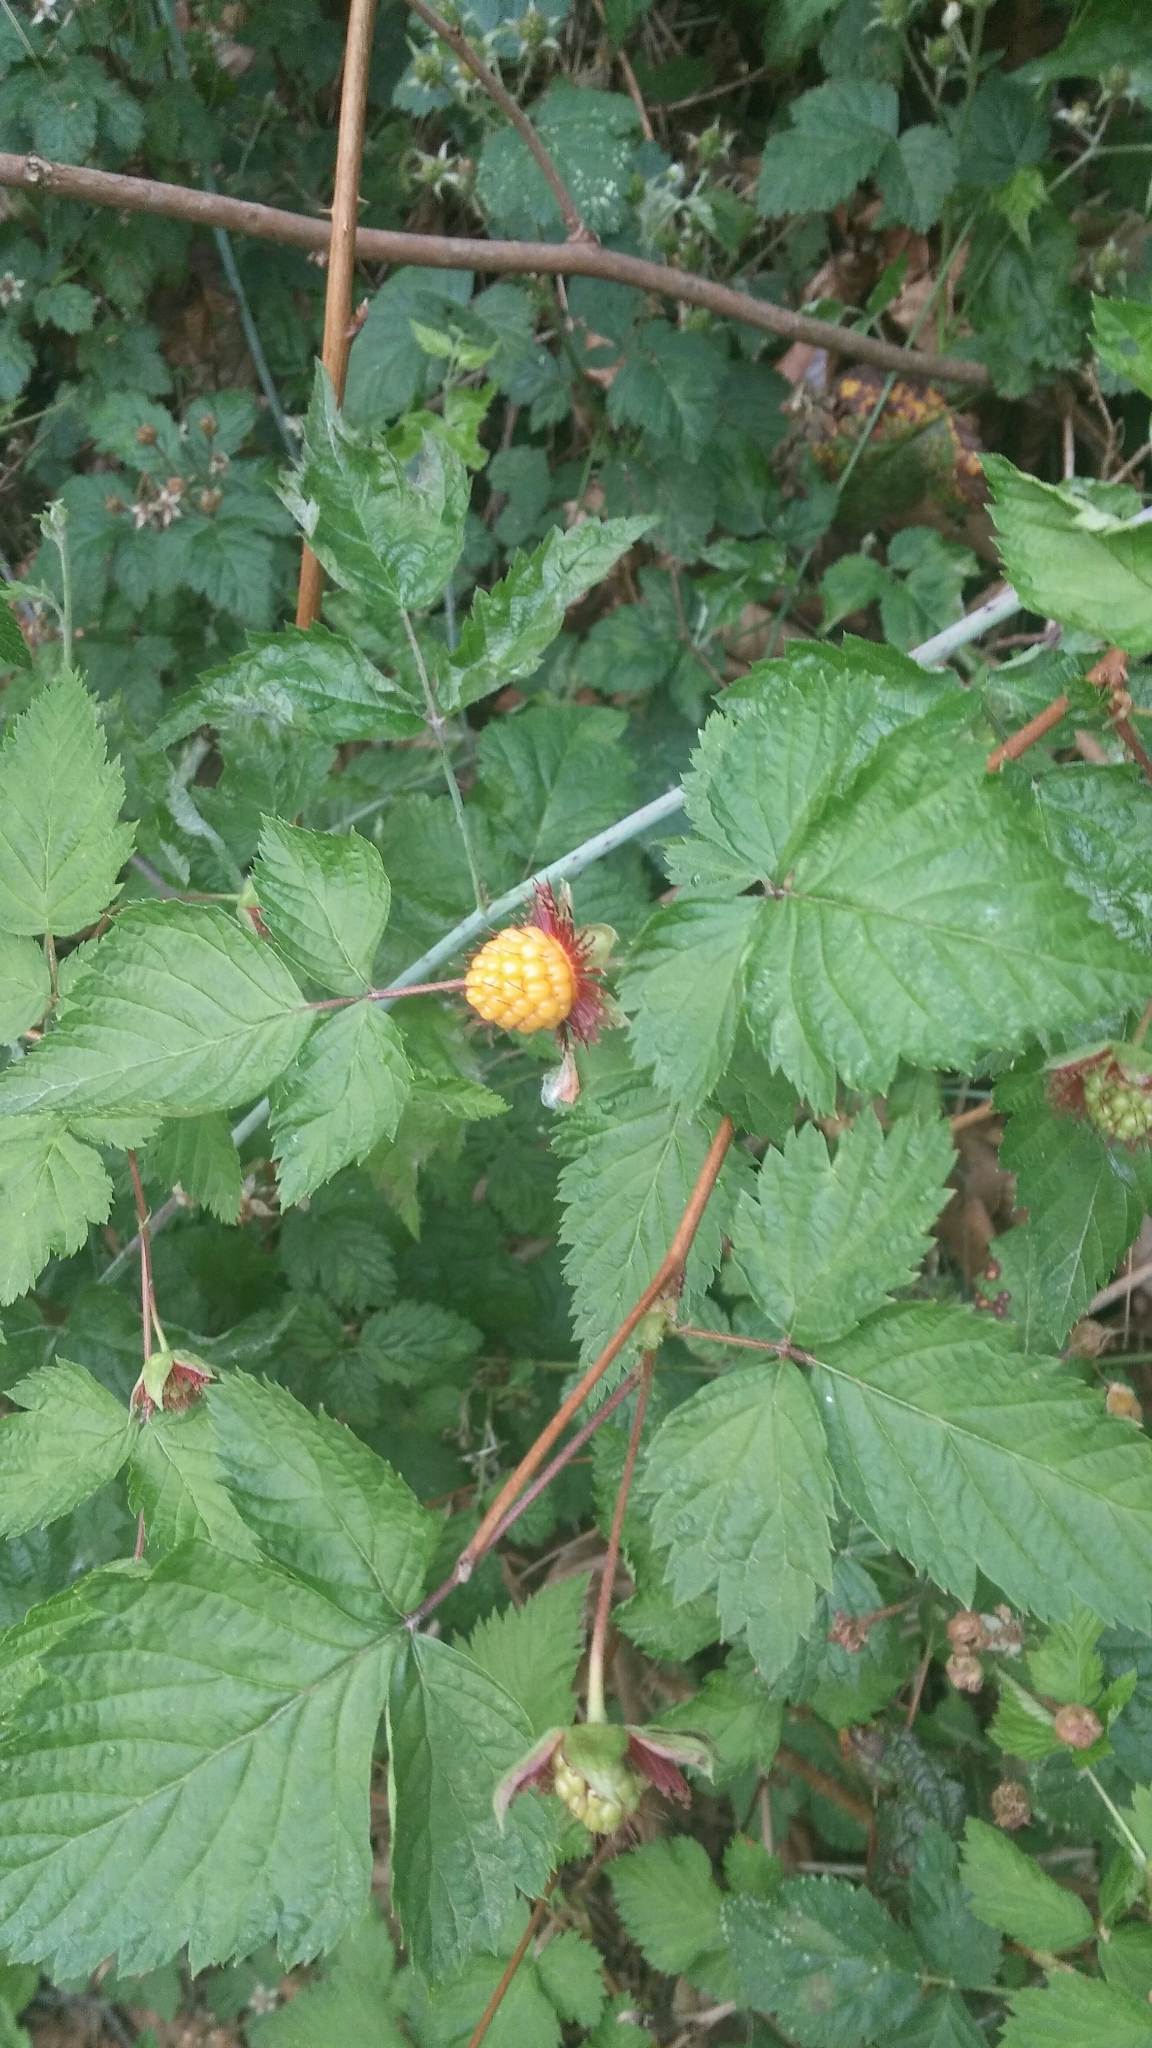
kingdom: Plantae
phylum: Tracheophyta
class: Magnoliopsida
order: Rosales
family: Rosaceae
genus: Rubus
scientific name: Rubus spectabilis
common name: Salmonberry
